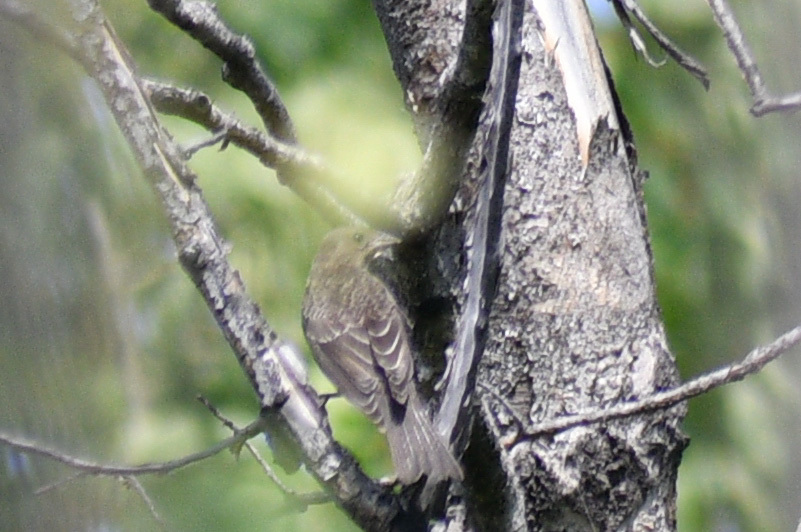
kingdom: Animalia
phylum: Chordata
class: Aves
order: Passeriformes
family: Icteridae
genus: Molothrus
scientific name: Molothrus ater
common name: Brown-headed cowbird
